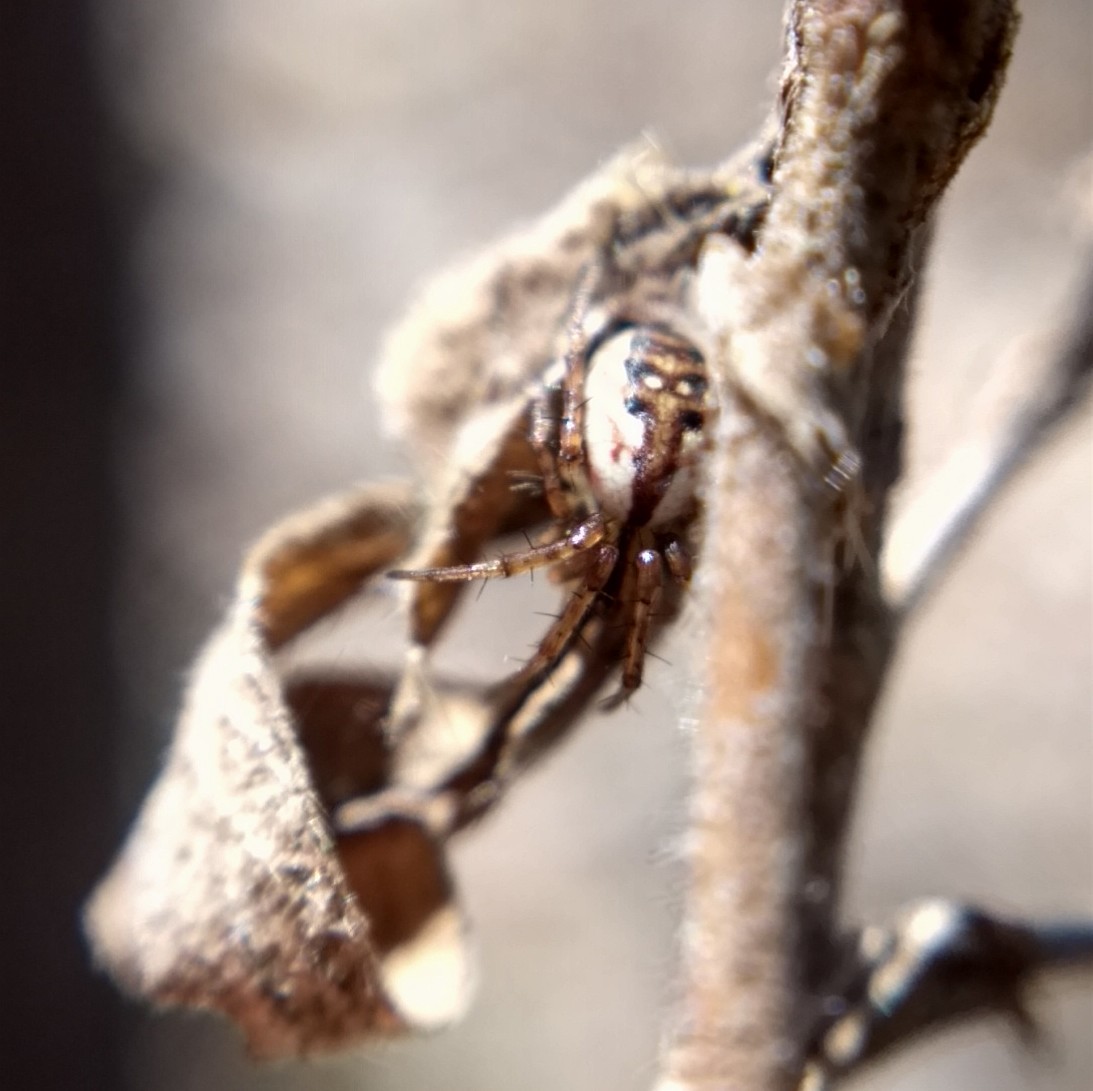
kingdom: Animalia
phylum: Arthropoda
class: Arachnida
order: Araneae
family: Araneidae
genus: Mangora
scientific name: Mangora placida
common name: Tuft-legged orbweaver
